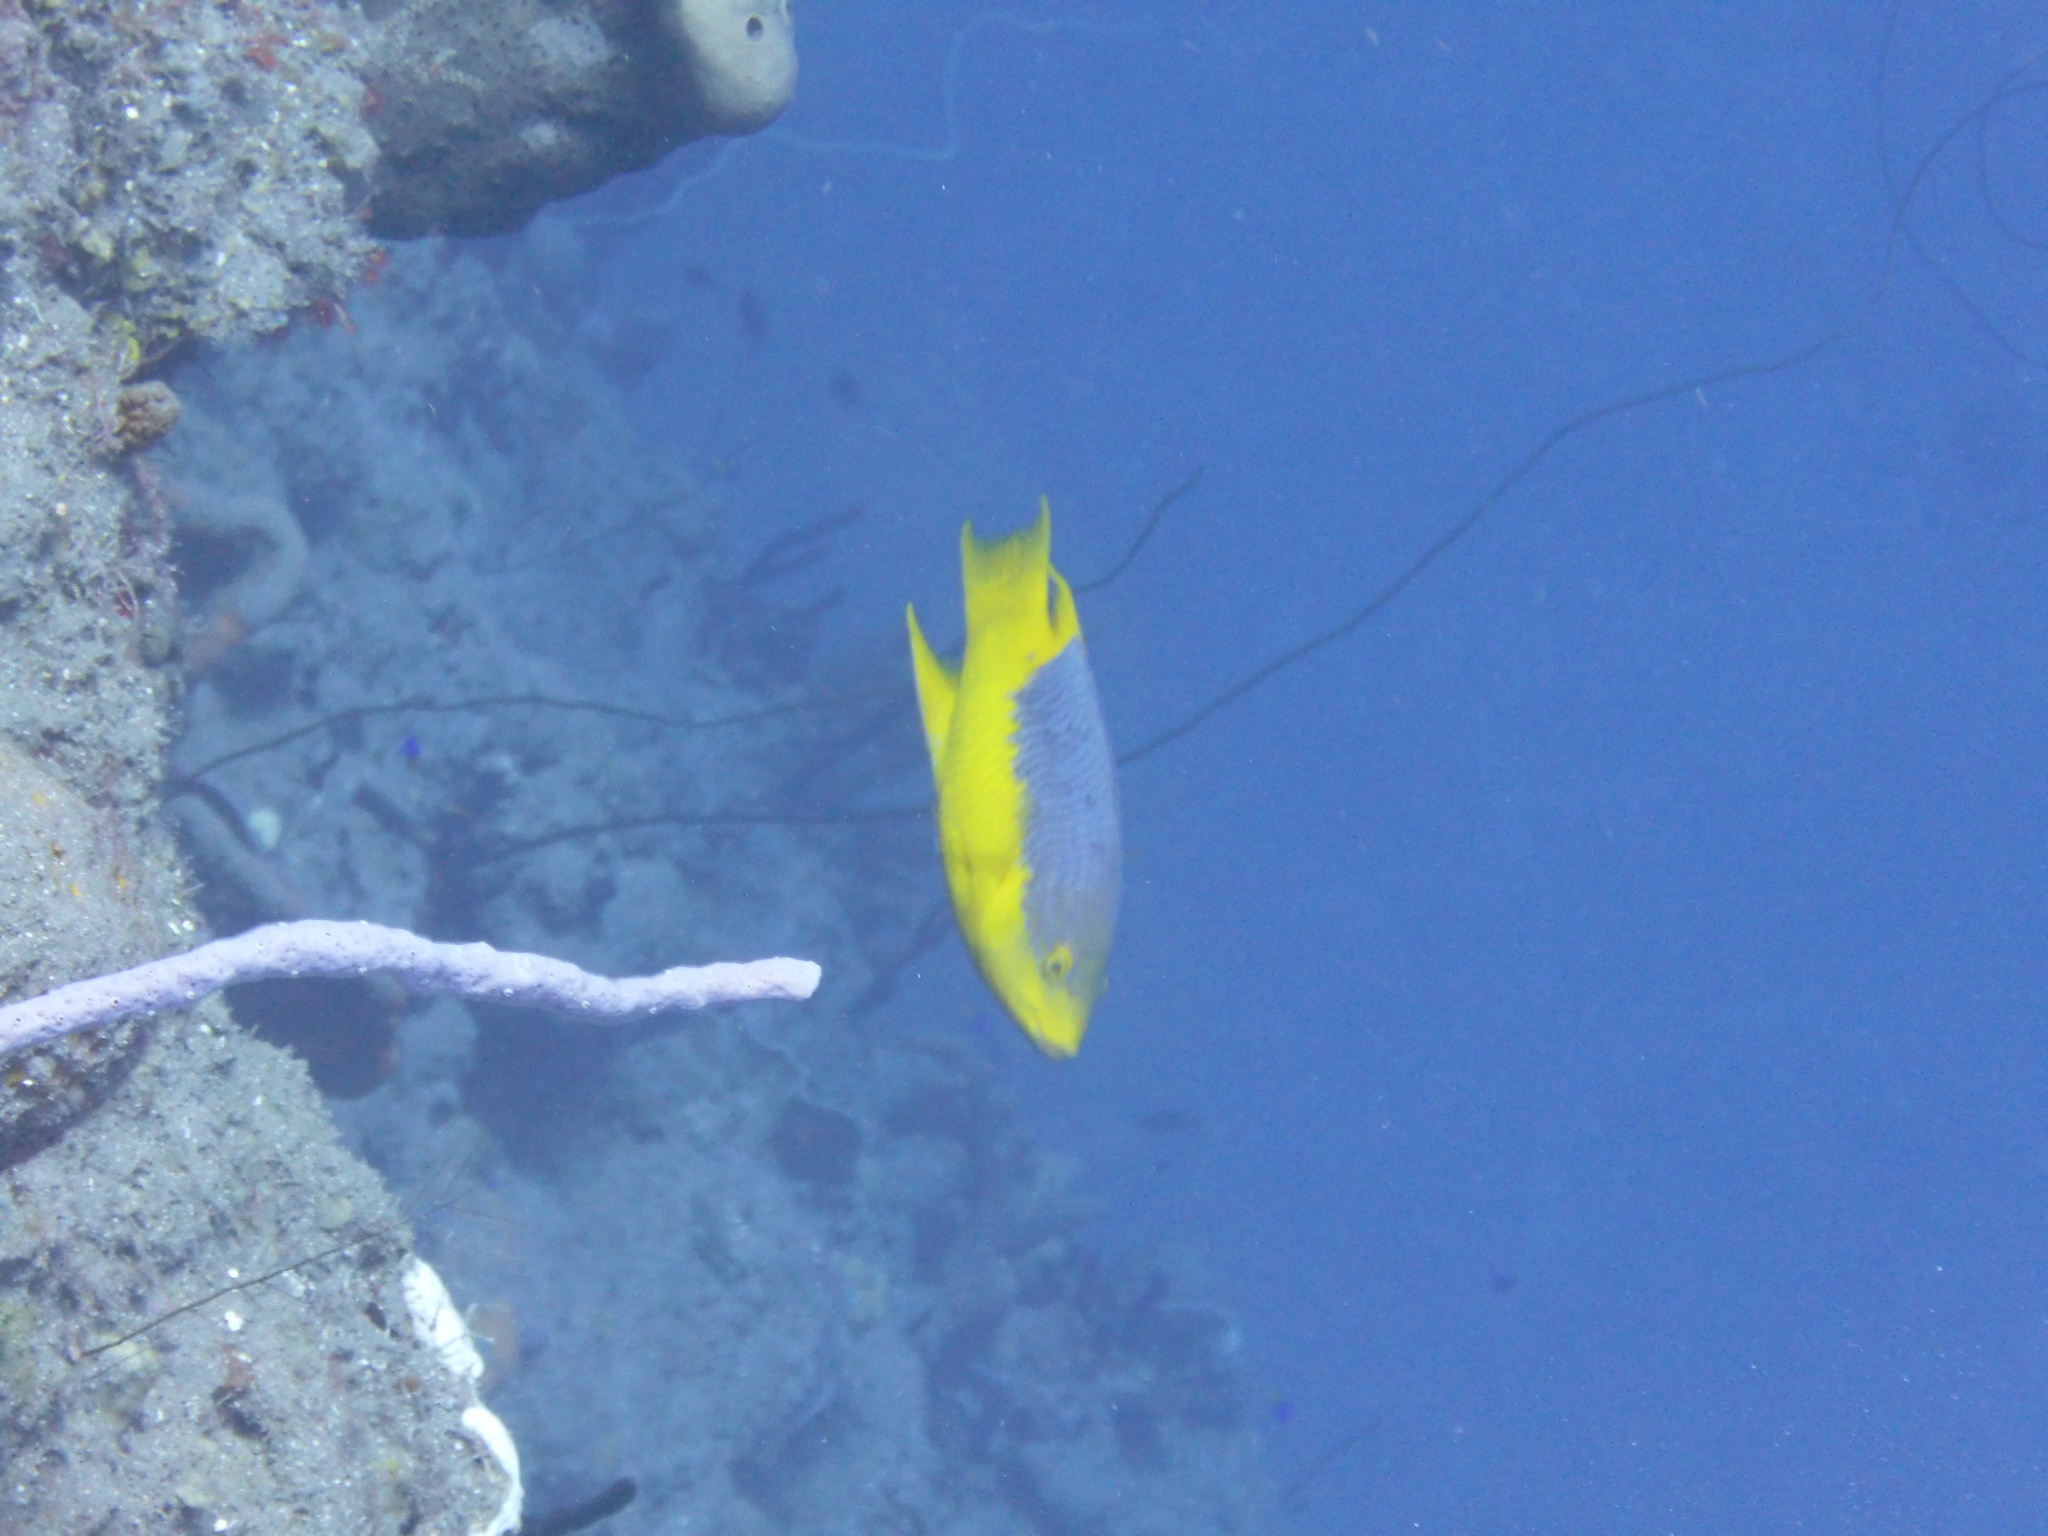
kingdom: Animalia
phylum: Chordata
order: Perciformes
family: Labridae
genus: Bodianus
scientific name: Bodianus rufus
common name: Spanish hogfish
